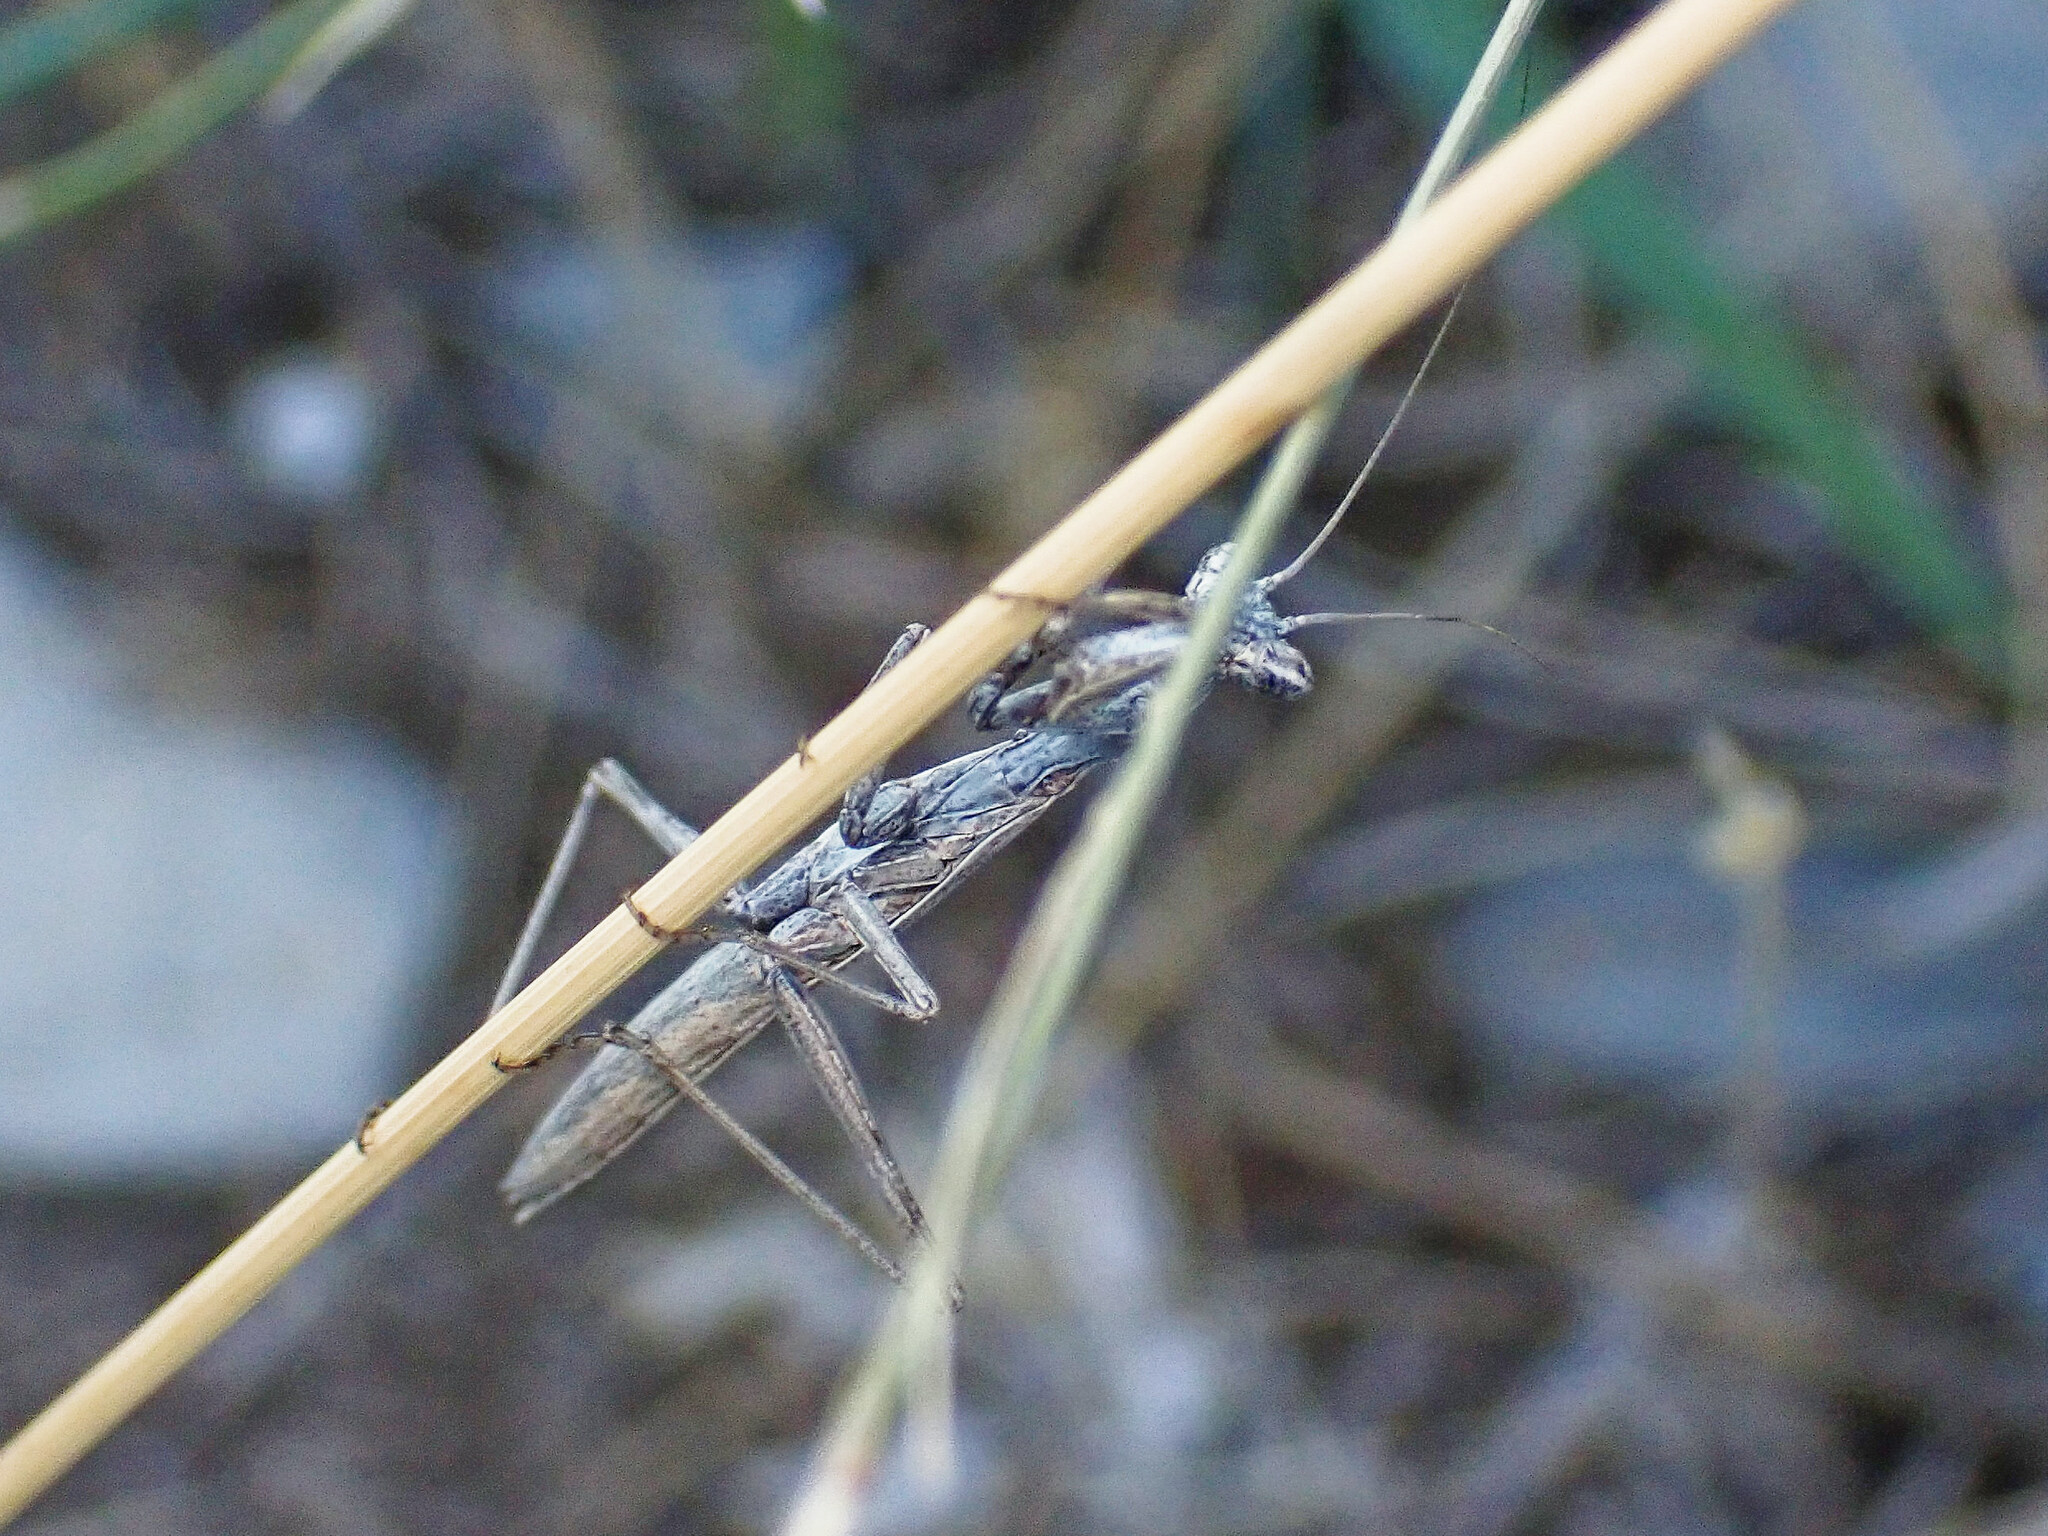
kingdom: Animalia
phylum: Arthropoda
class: Insecta
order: Mantodea
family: Amelidae
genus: Ameles
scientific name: Ameles decolor
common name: Dwarf mantis
